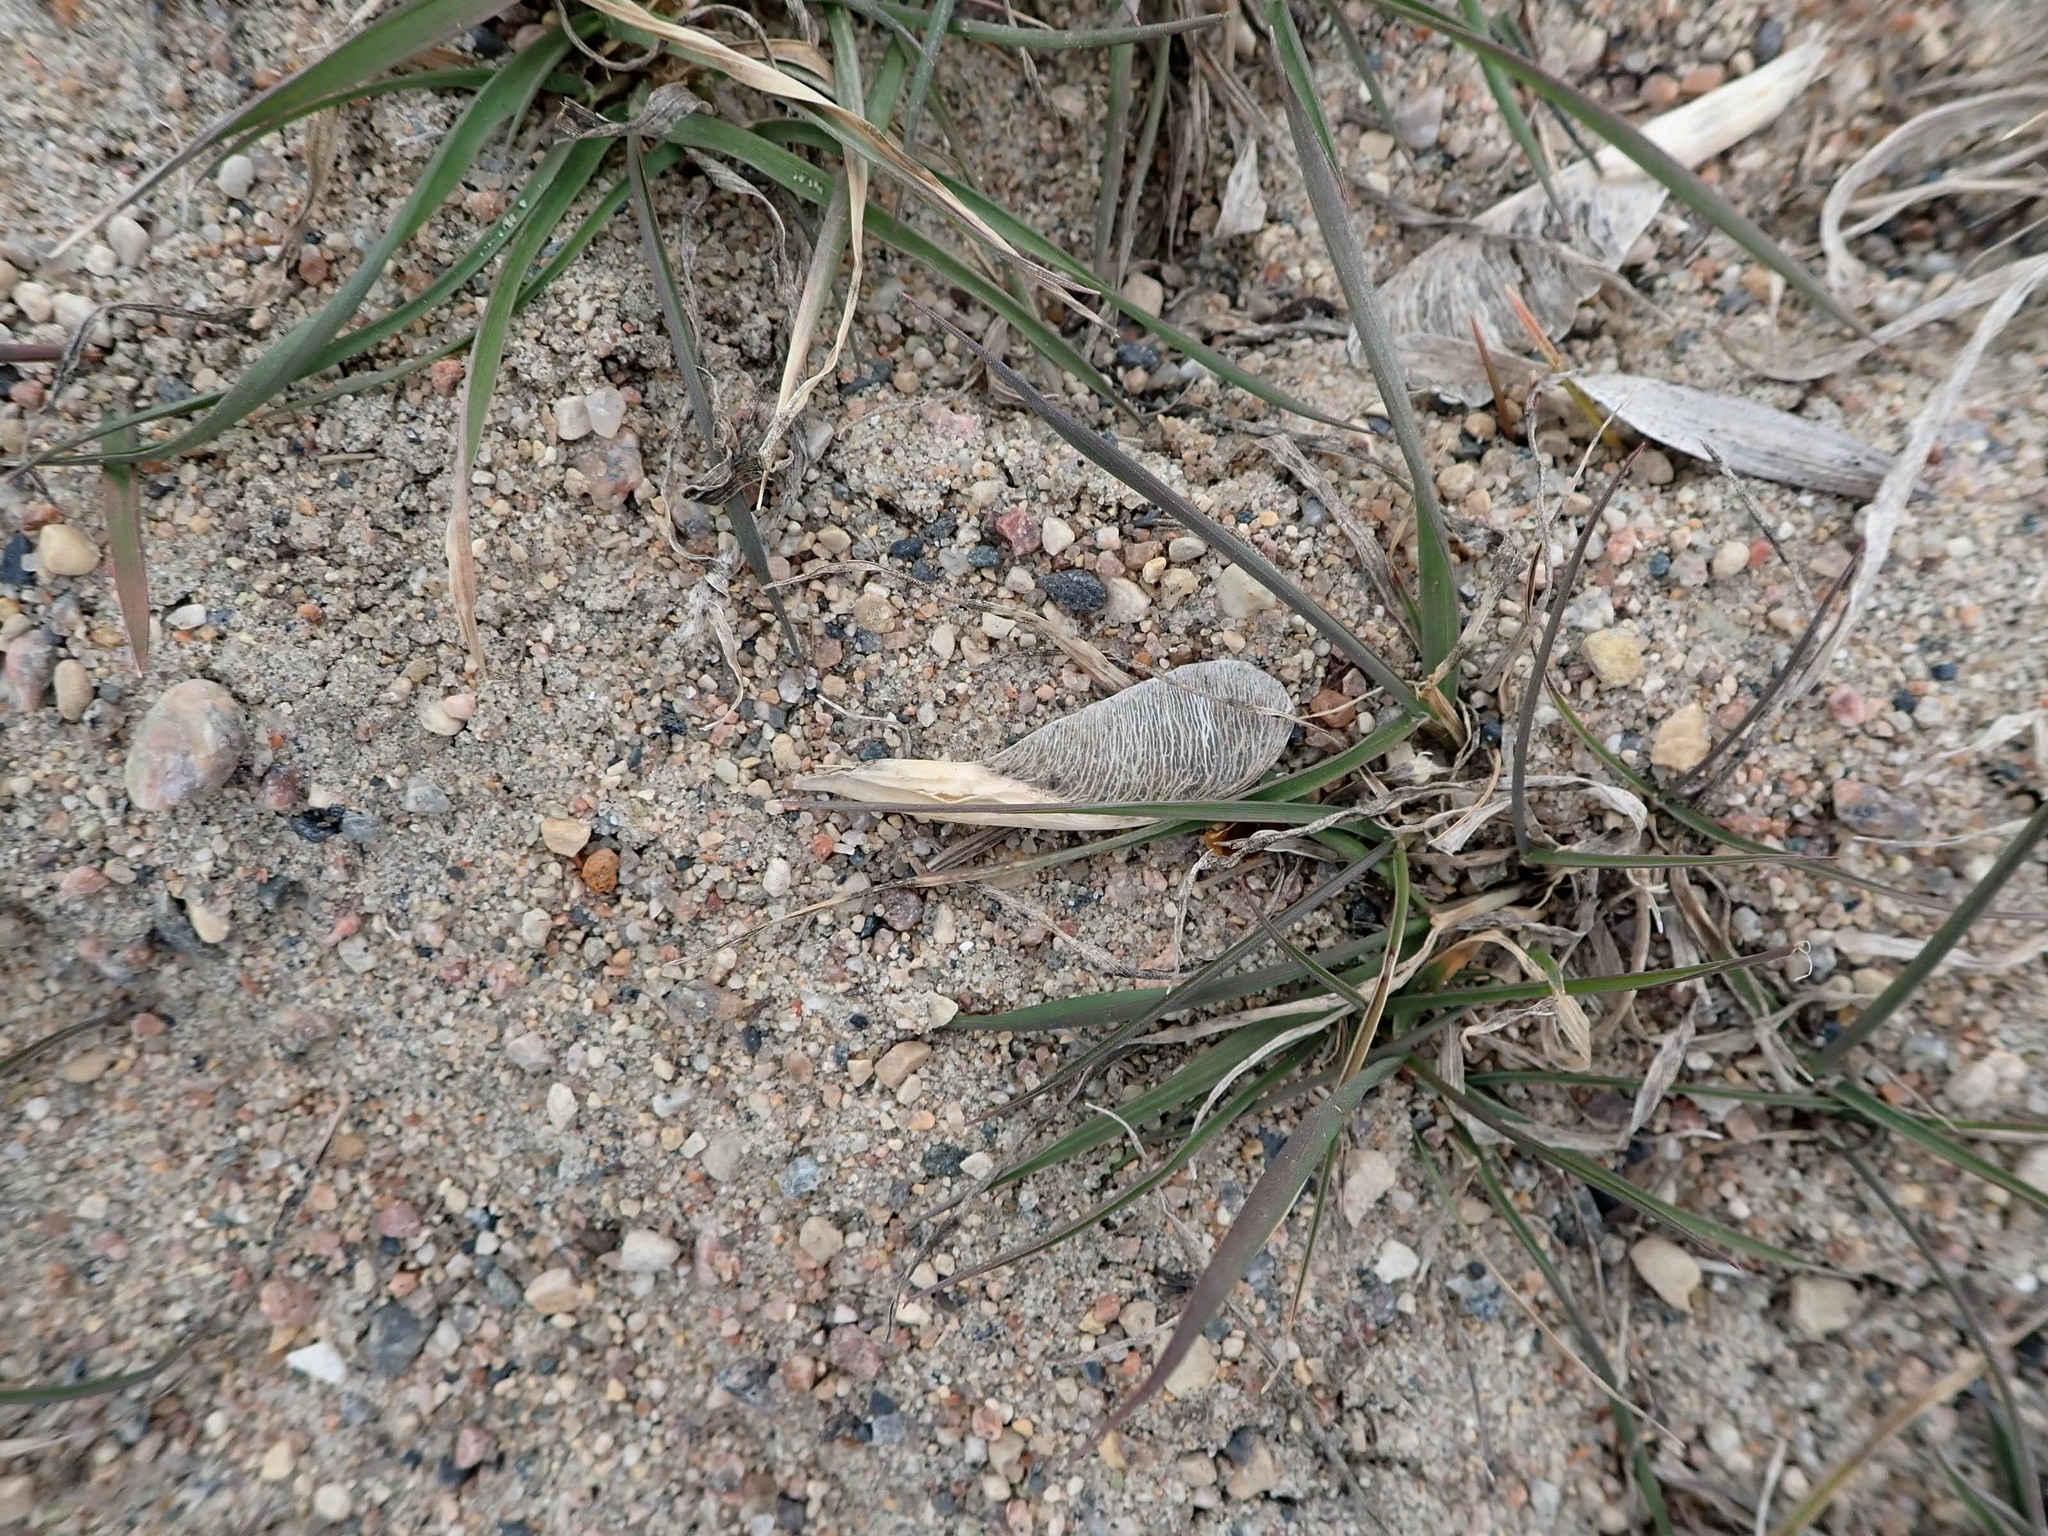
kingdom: Plantae
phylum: Tracheophyta
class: Magnoliopsida
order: Sapindales
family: Sapindaceae
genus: Acer
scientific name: Acer negundo
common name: Ashleaf maple
